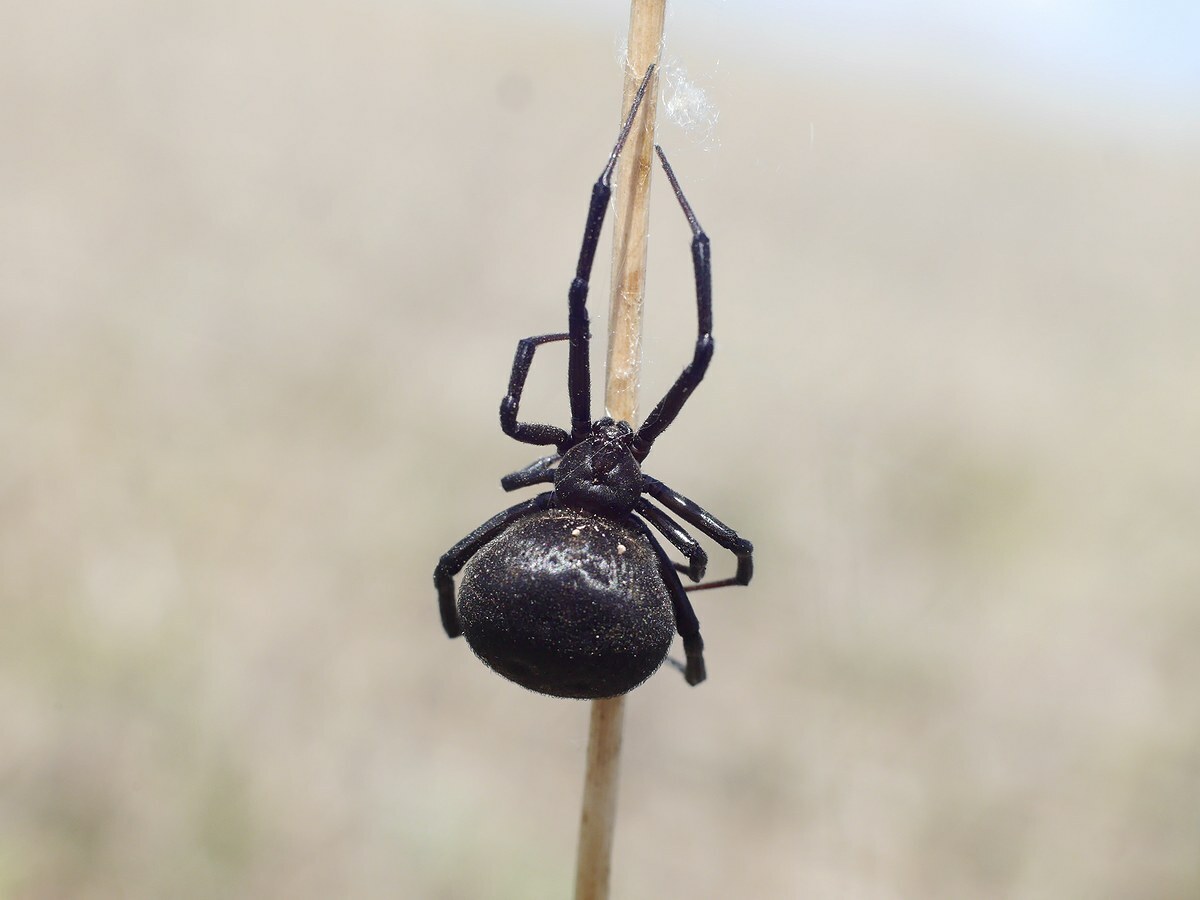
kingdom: Animalia
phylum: Arthropoda
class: Arachnida
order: Araneae
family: Theridiidae
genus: Latrodectus
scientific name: Latrodectus tredecimguttatus
